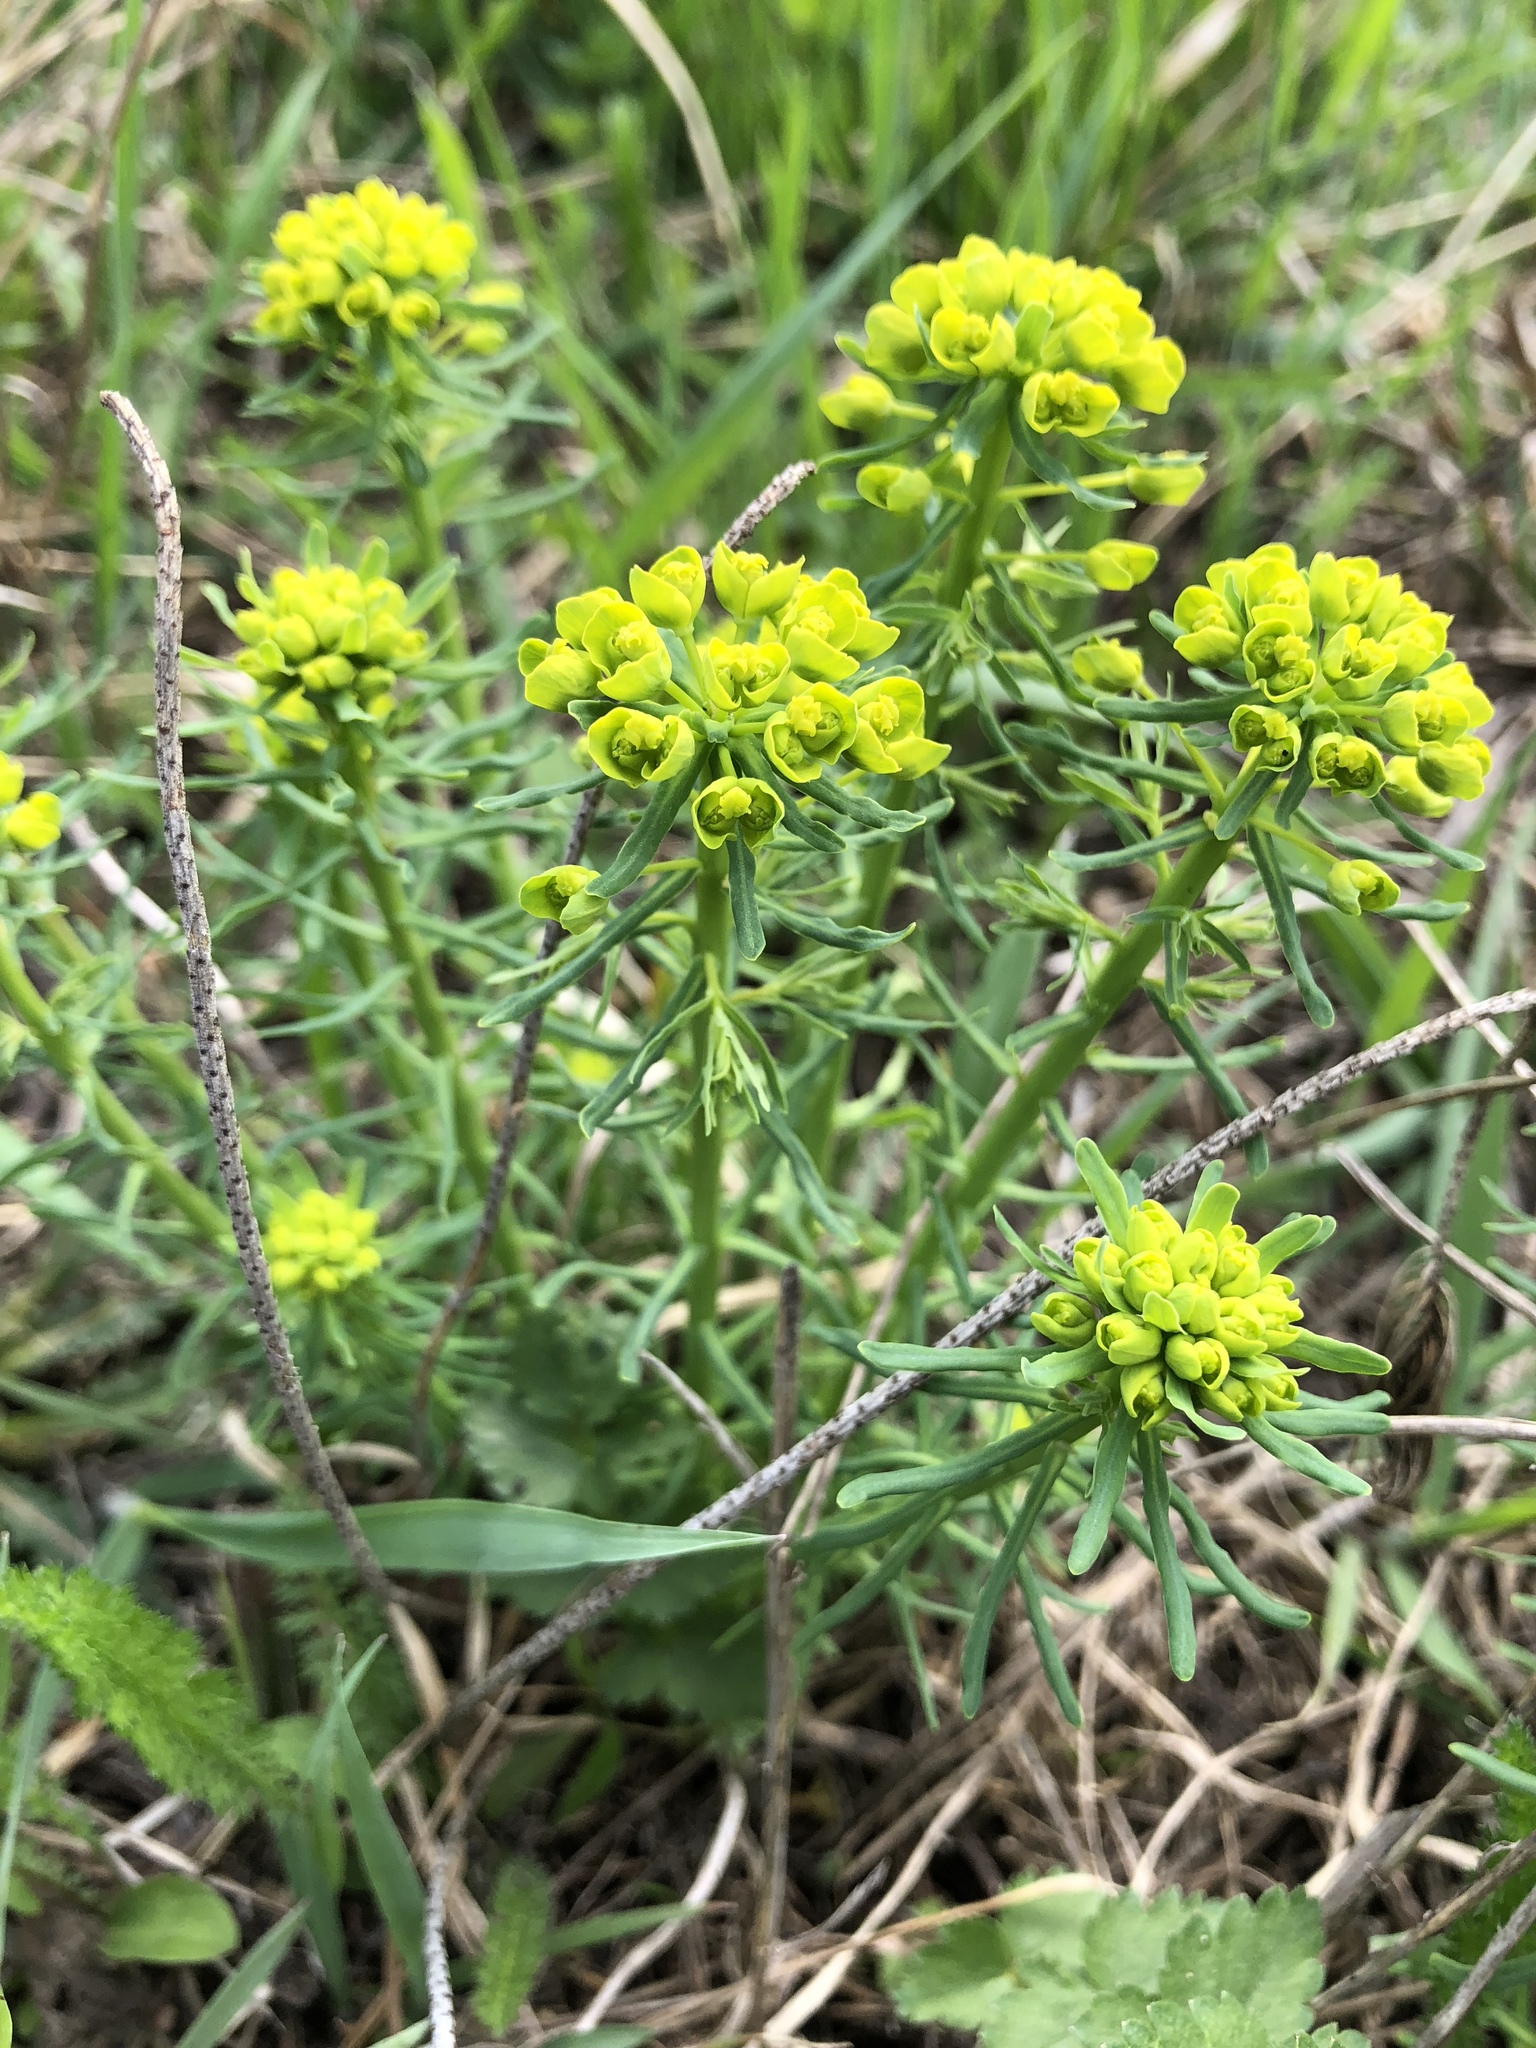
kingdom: Plantae
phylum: Tracheophyta
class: Magnoliopsida
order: Malpighiales
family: Euphorbiaceae
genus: Euphorbia
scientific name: Euphorbia cyparissias
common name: Cypress spurge
